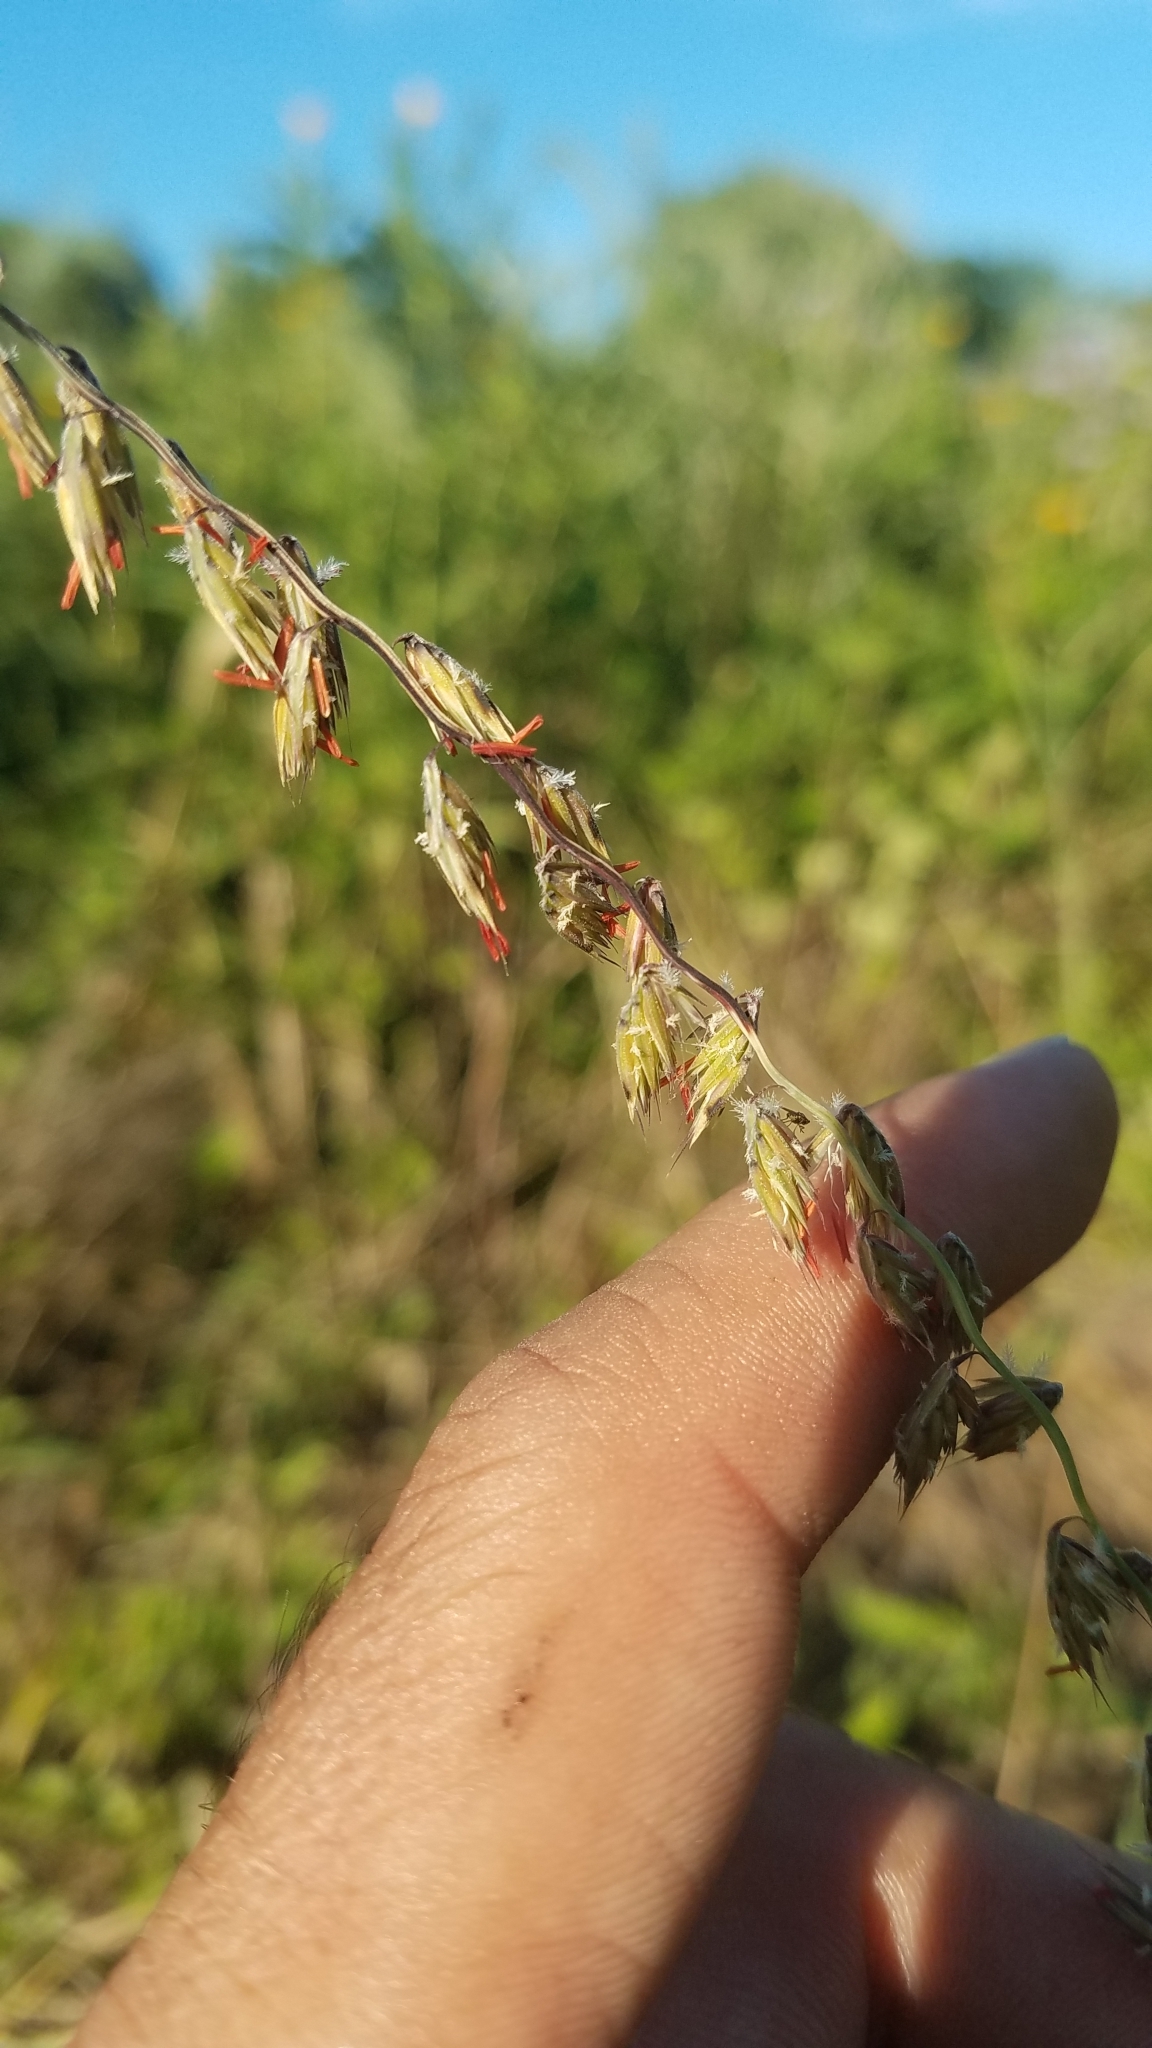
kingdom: Plantae
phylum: Tracheophyta
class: Liliopsida
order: Poales
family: Poaceae
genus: Bouteloua
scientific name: Bouteloua curtipendula
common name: Side-oats grama
